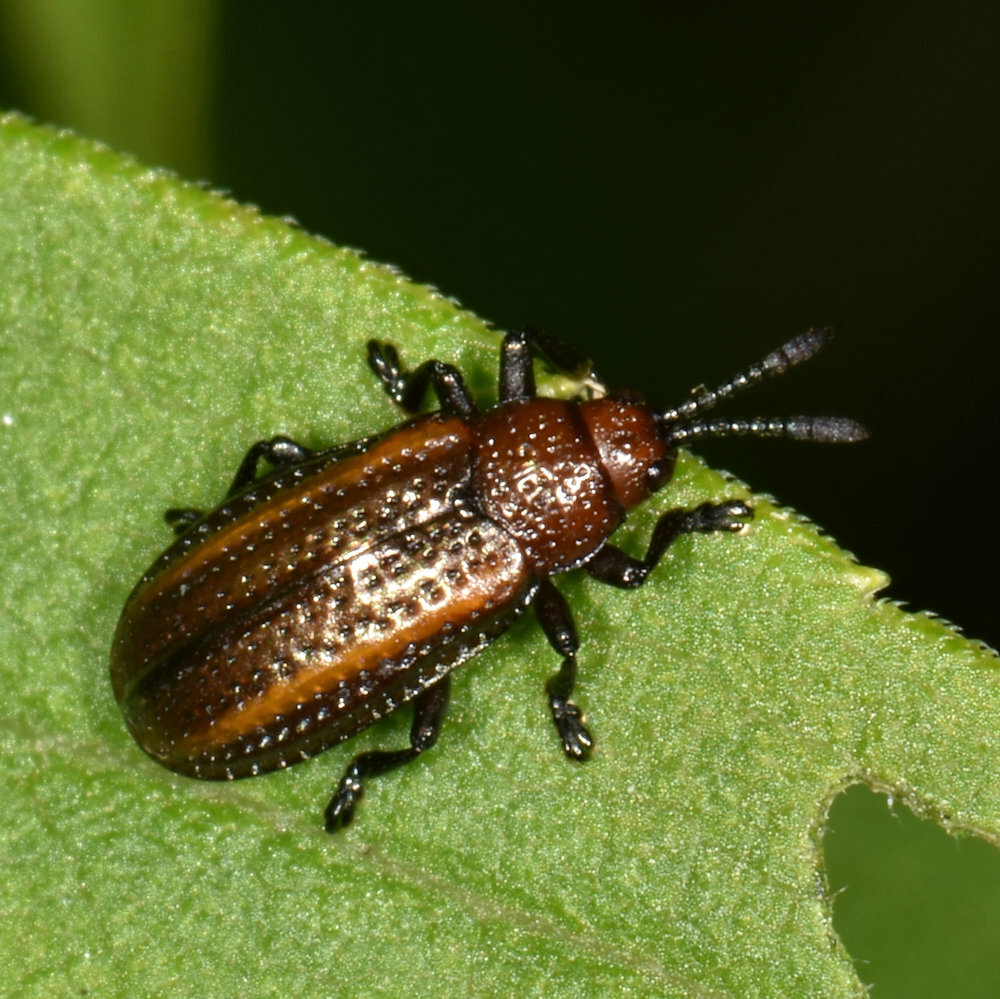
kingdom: Animalia
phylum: Arthropoda
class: Insecta
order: Coleoptera
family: Chrysomelidae
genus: Microrhopala
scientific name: Microrhopala vittata
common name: Goldenrod leaf miner beetle
